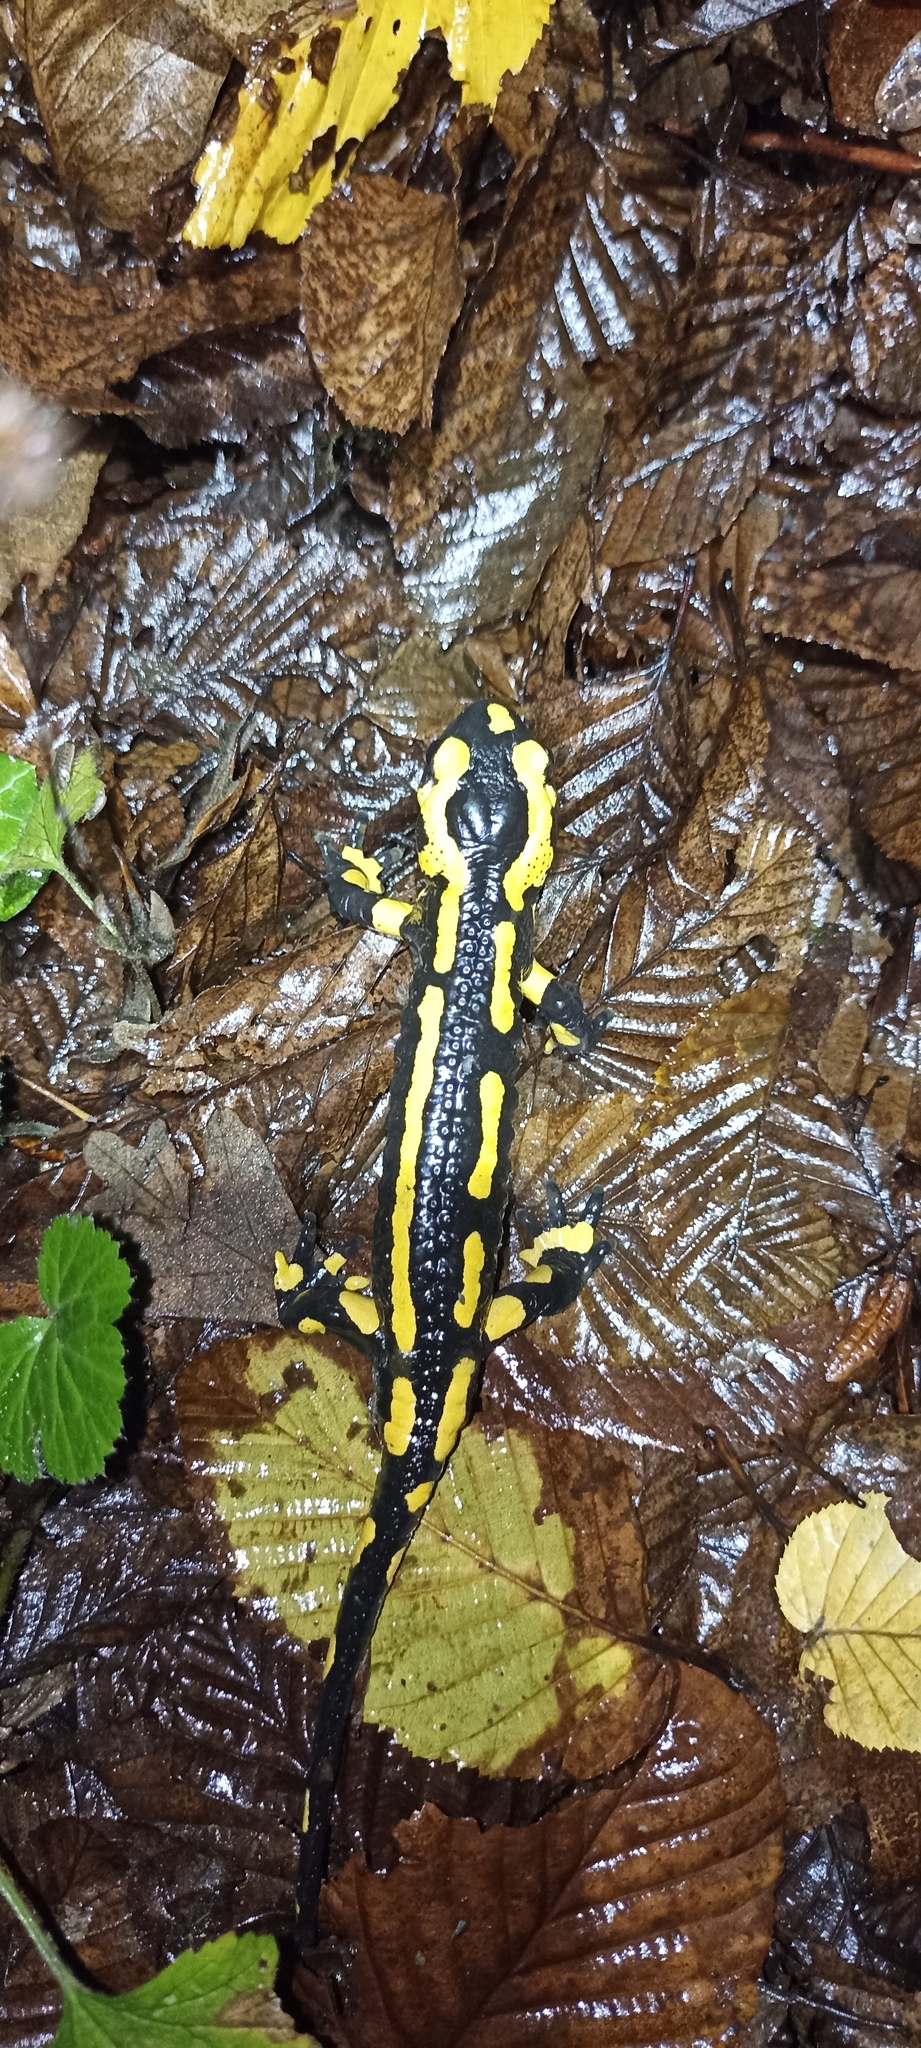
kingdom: Animalia
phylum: Chordata
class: Amphibia
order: Caudata
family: Salamandridae
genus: Salamandra
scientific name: Salamandra salamandra
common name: Fire salamander
